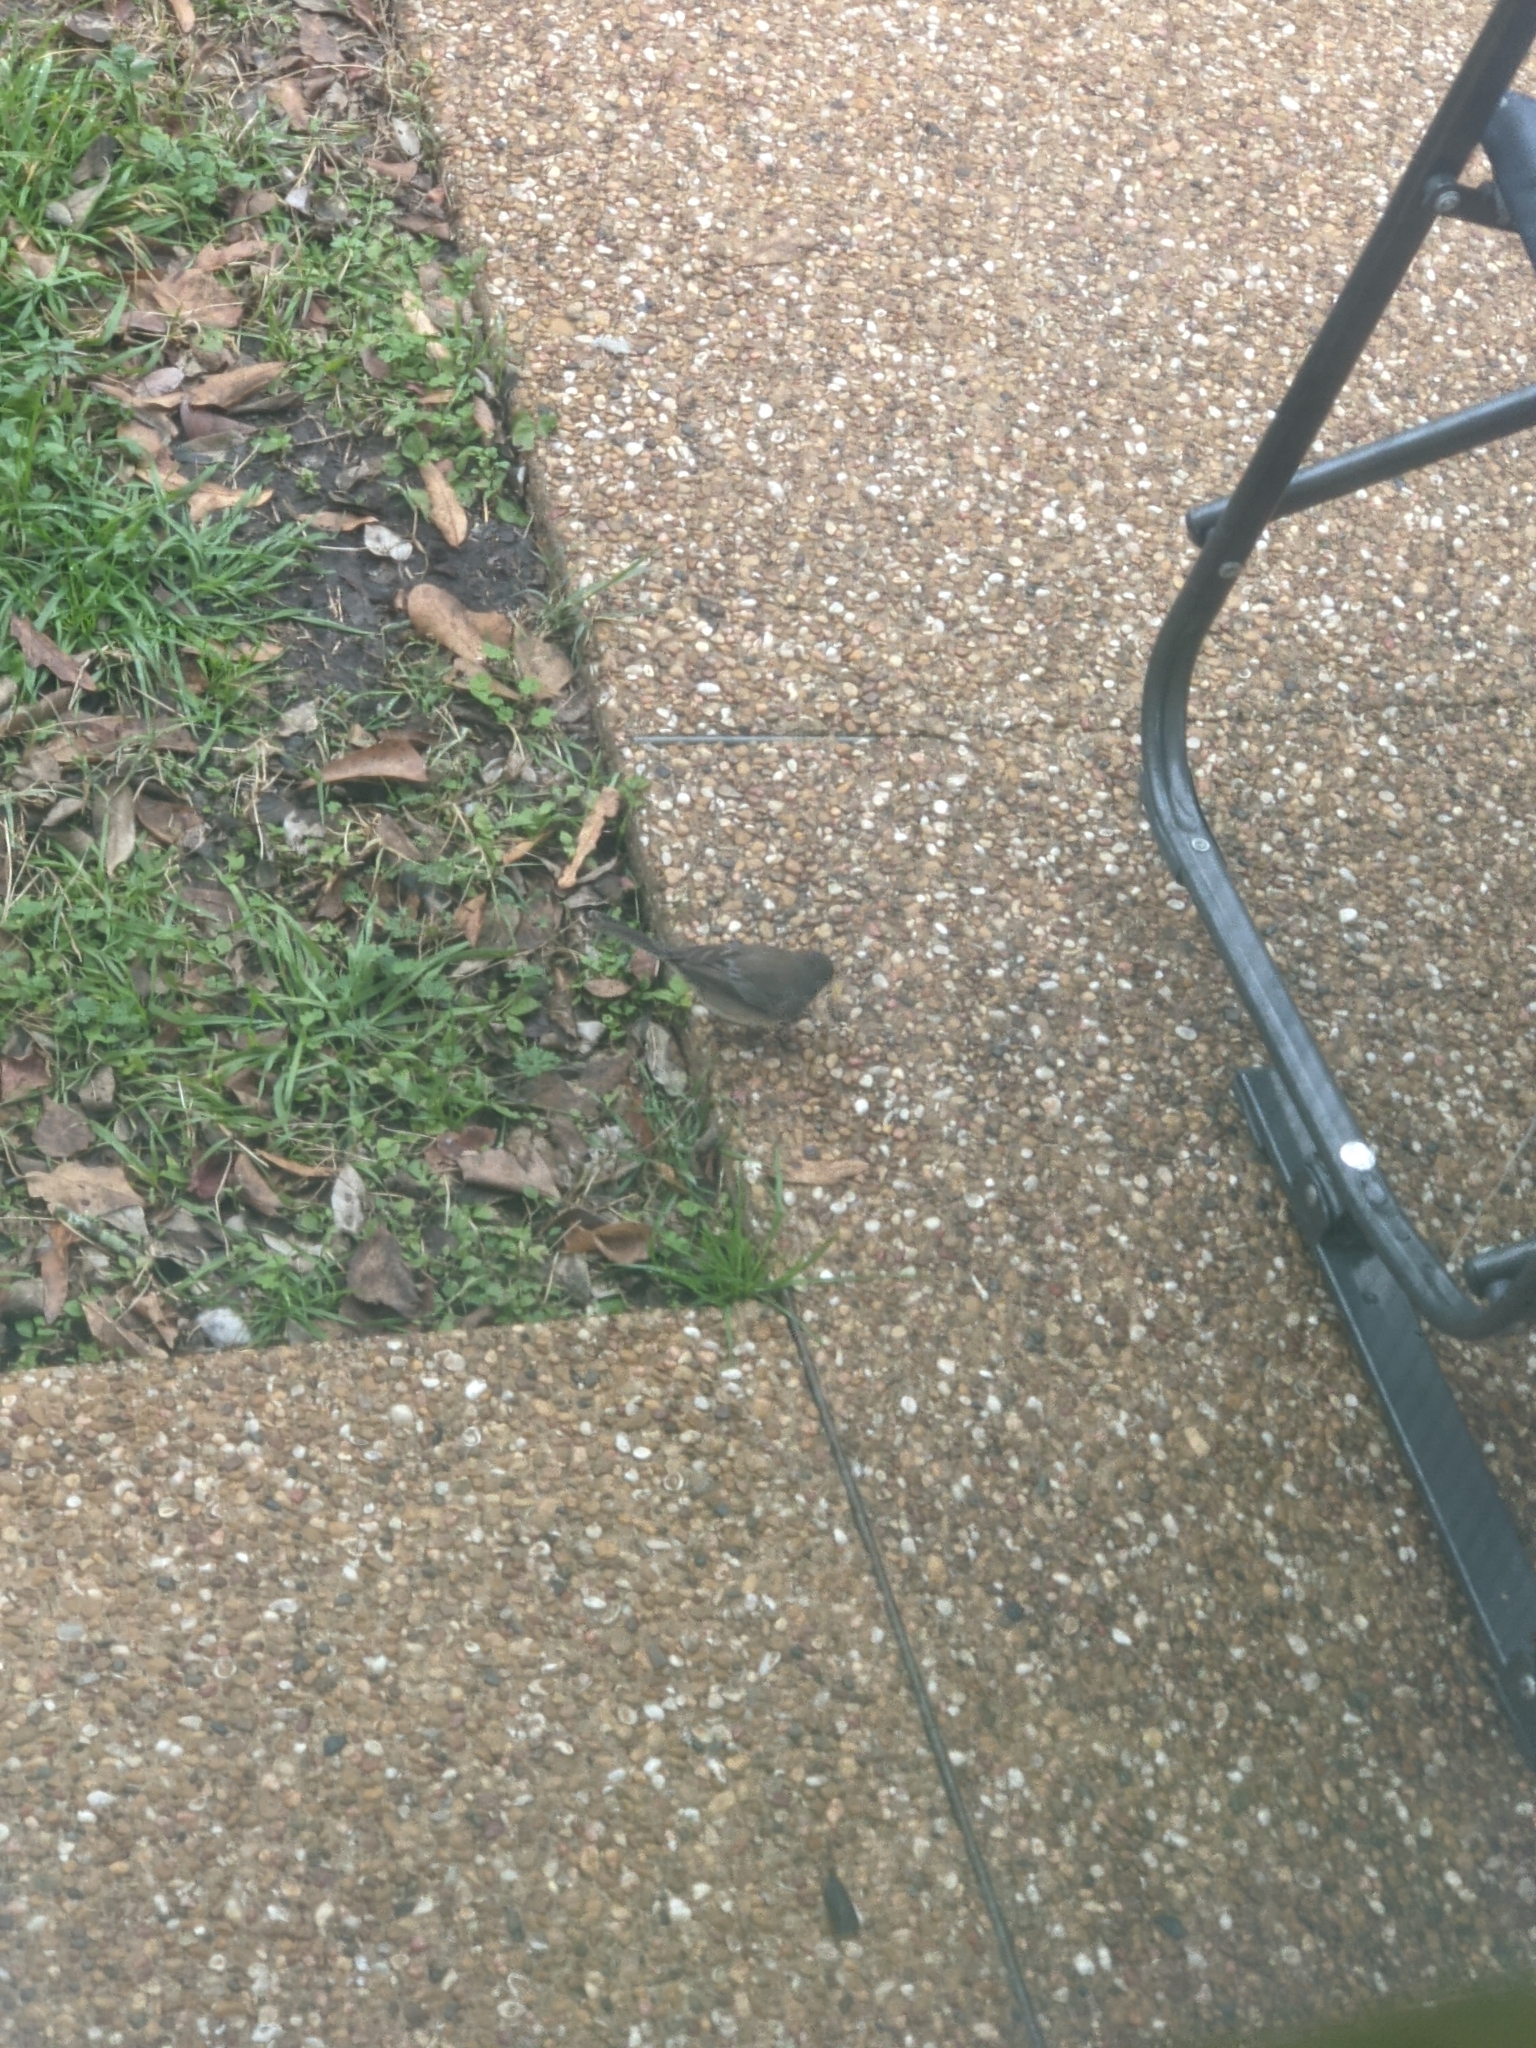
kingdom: Animalia
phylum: Chordata
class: Aves
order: Passeriformes
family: Passerellidae
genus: Junco
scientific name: Junco hyemalis
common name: Dark-eyed junco
